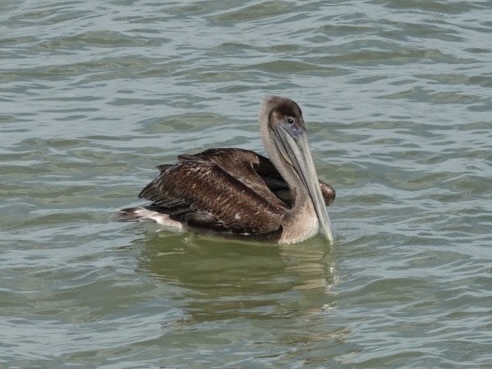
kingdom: Animalia
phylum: Chordata
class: Aves
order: Pelecaniformes
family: Pelecanidae
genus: Pelecanus
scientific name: Pelecanus occidentalis
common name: Brown pelican
